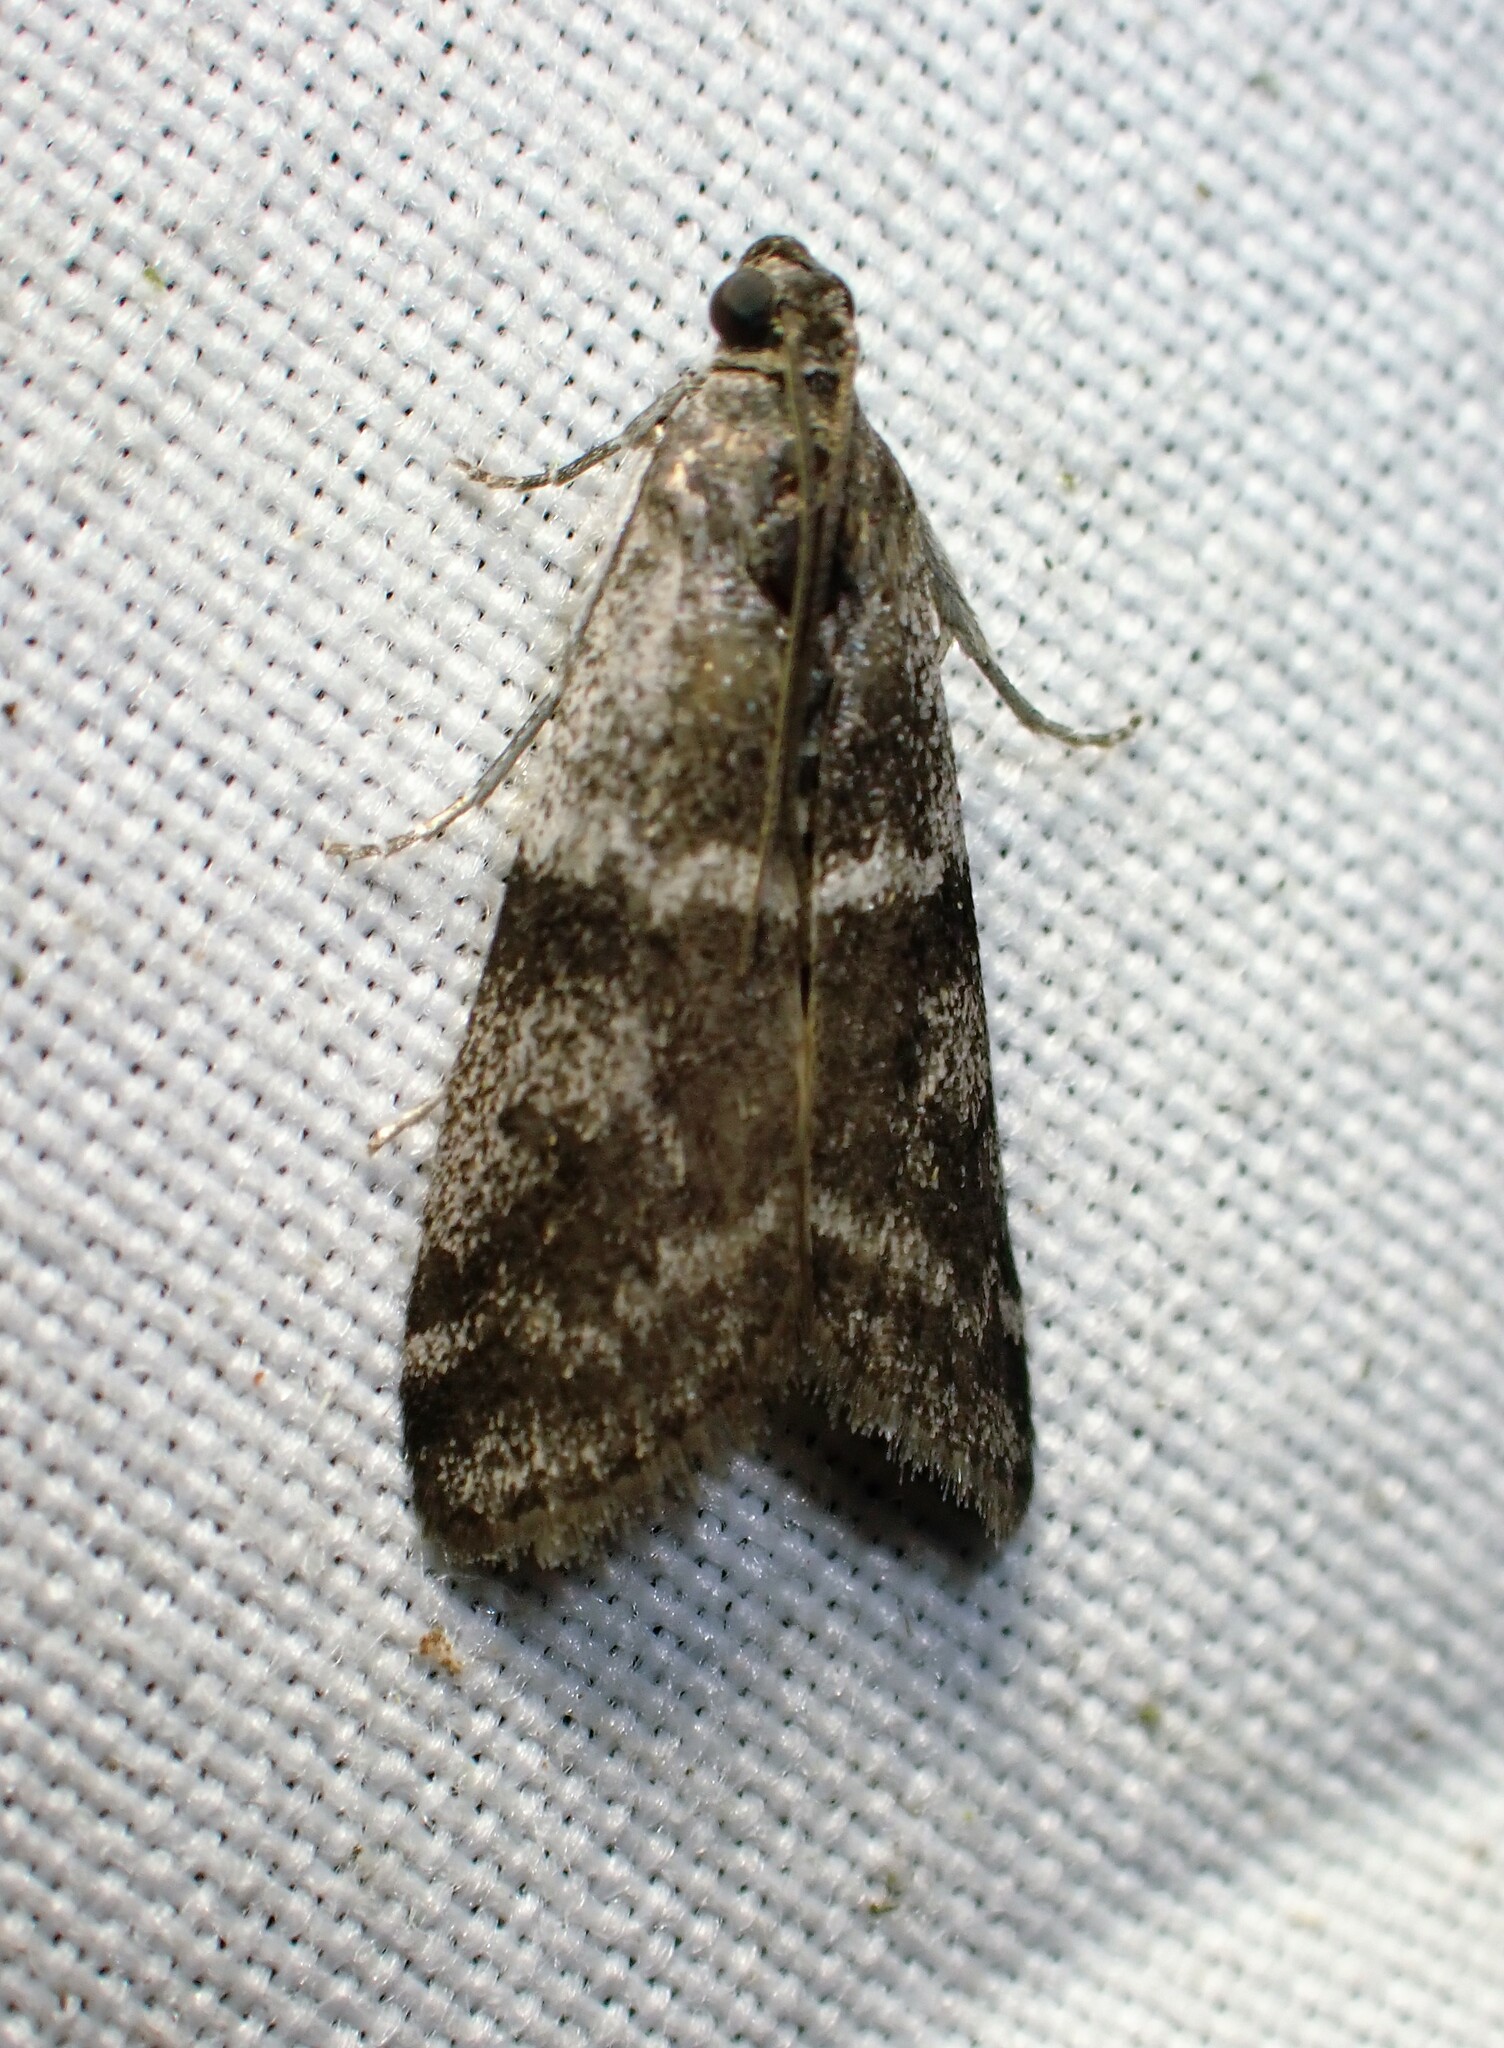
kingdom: Animalia
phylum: Arthropoda
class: Insecta
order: Lepidoptera
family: Pyralidae
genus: Apomyelois
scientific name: Apomyelois bistriatella
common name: Heath knot-horn
